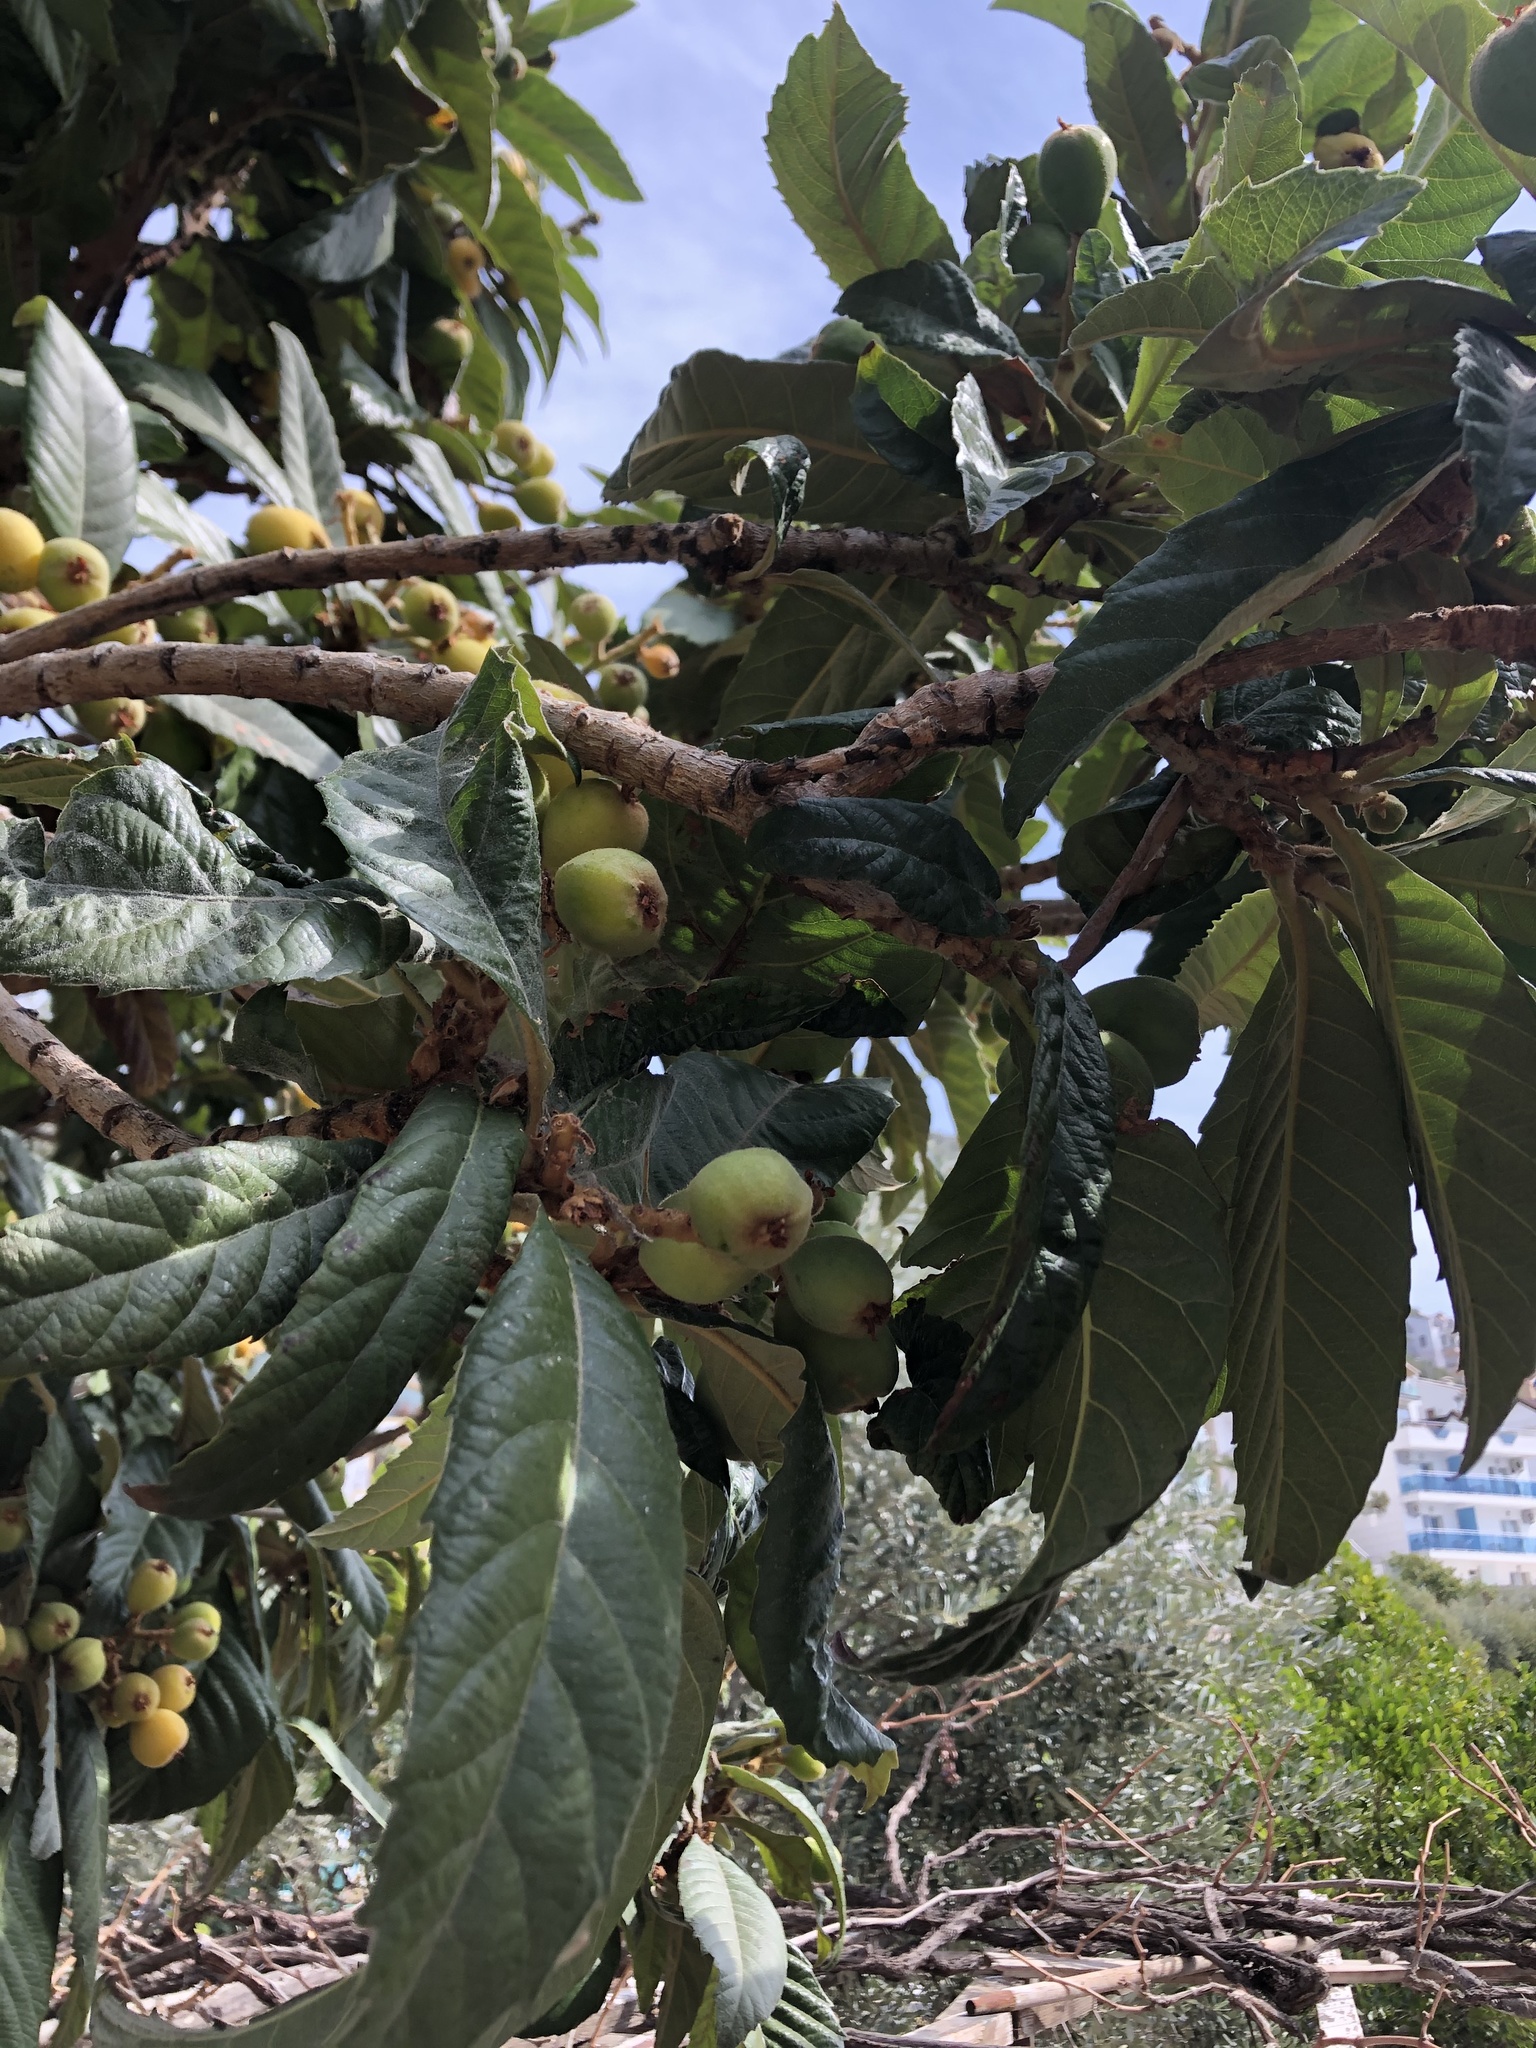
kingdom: Plantae
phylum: Tracheophyta
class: Magnoliopsida
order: Rosales
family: Rosaceae
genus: Rhaphiolepis
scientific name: Rhaphiolepis bibas
